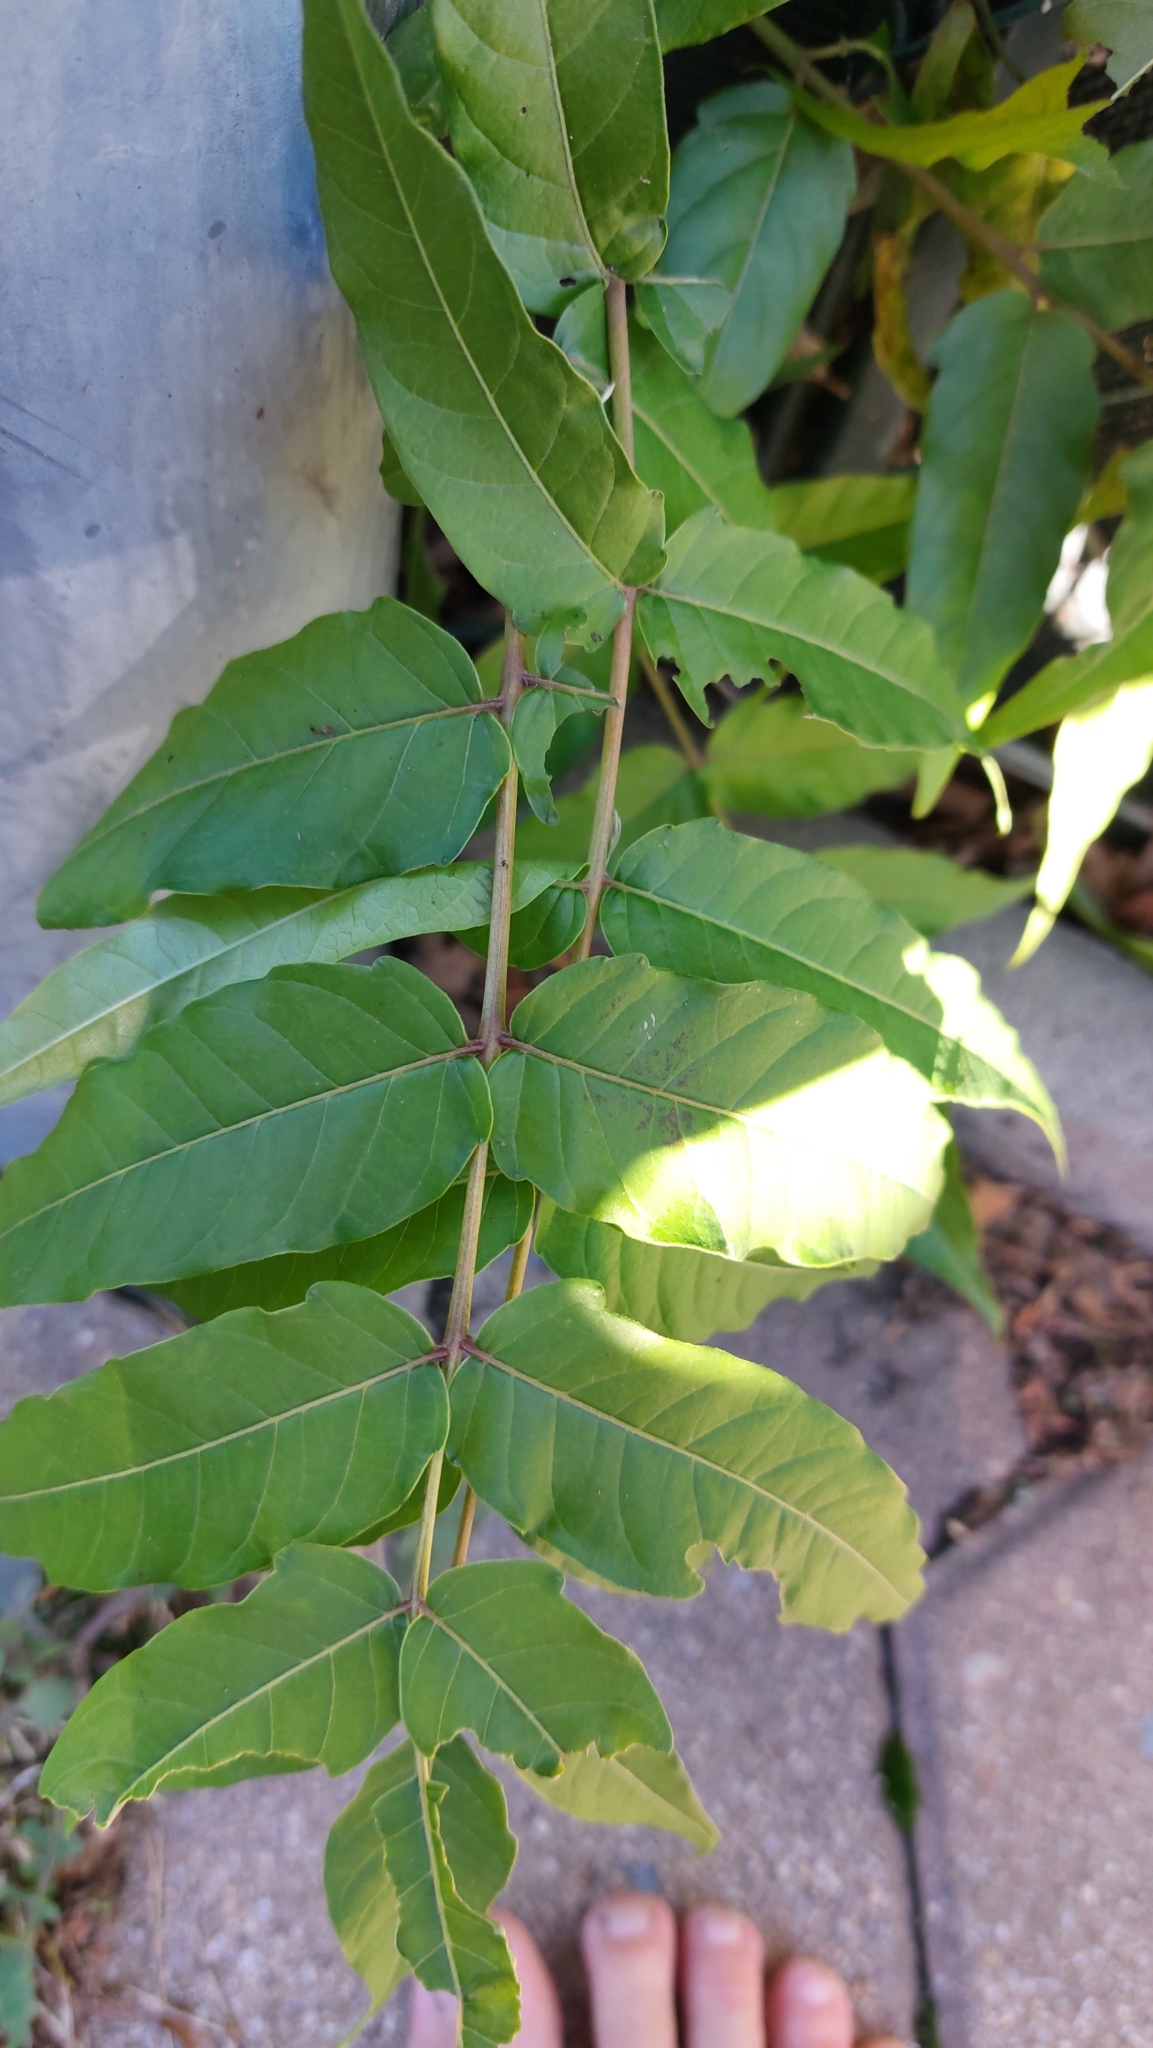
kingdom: Plantae
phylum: Tracheophyta
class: Magnoliopsida
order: Sapindales
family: Simaroubaceae
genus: Ailanthus
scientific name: Ailanthus altissima
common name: Tree-of-heaven
